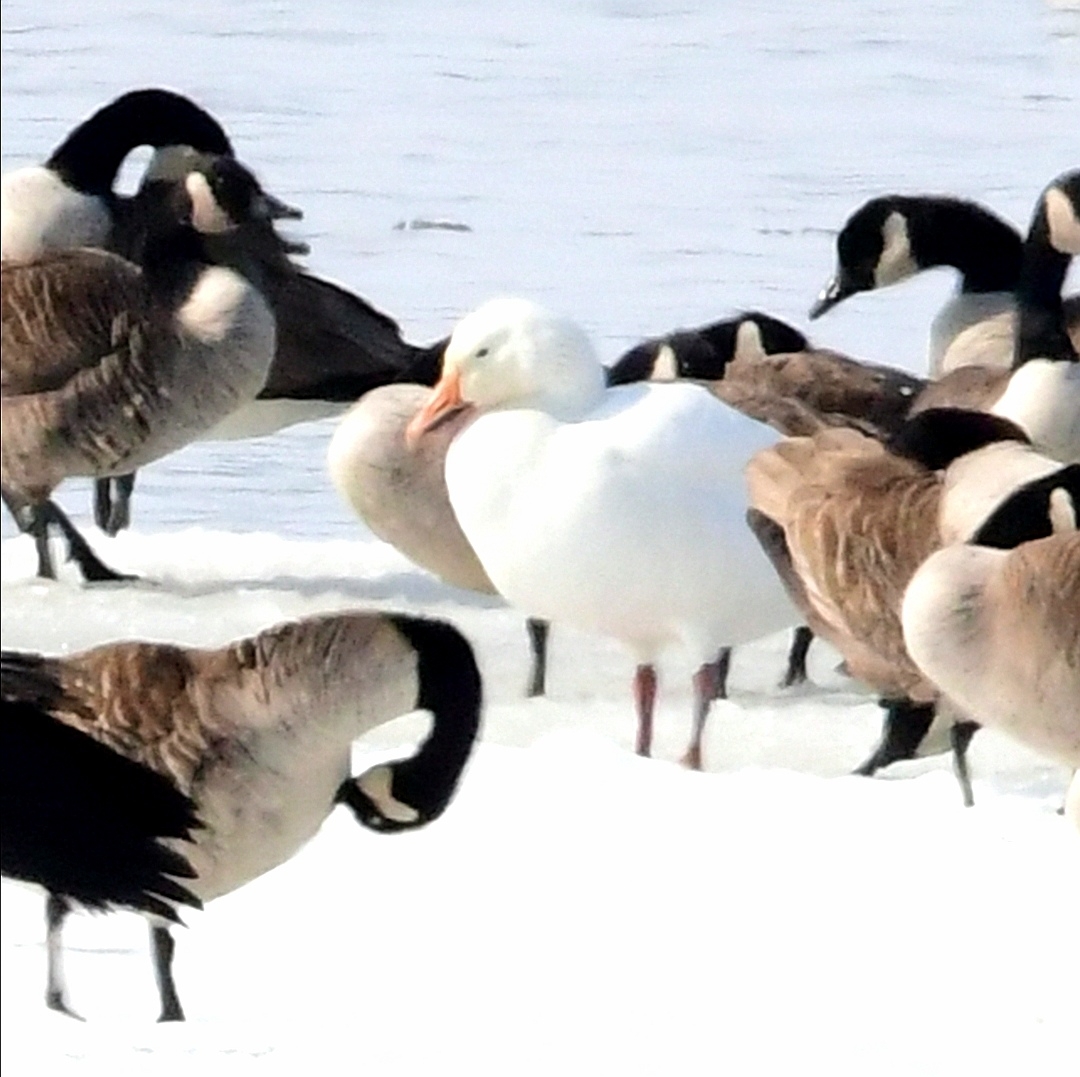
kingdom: Animalia
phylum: Chordata
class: Aves
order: Anseriformes
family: Anatidae
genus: Anser
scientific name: Anser caerulescens
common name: Snow goose
